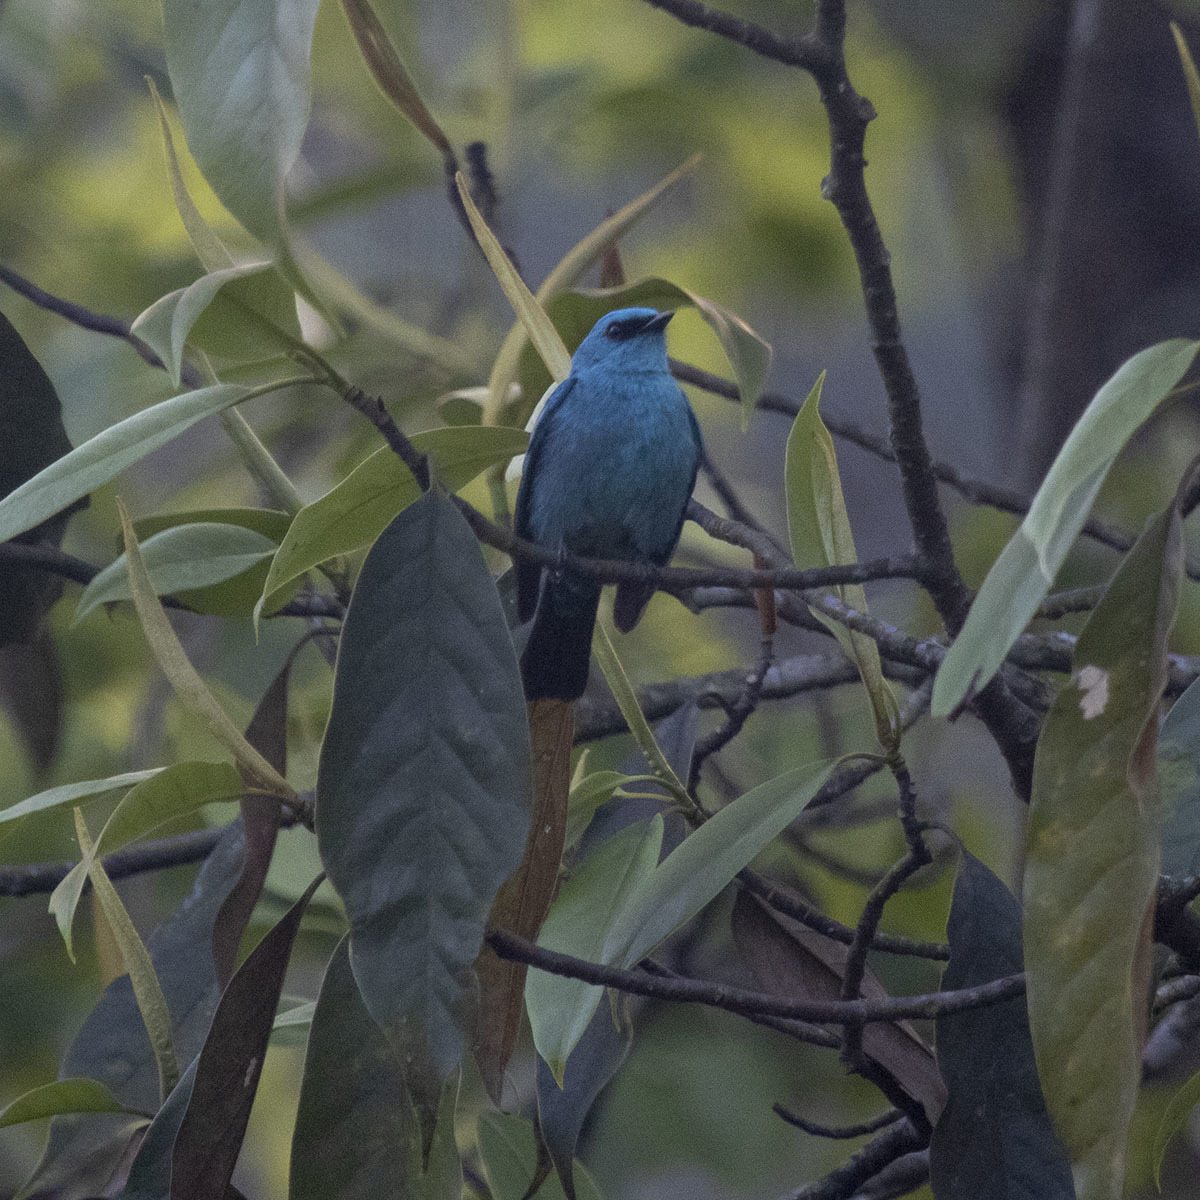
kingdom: Animalia
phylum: Chordata
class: Aves
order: Passeriformes
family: Muscicapidae
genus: Eumyias
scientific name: Eumyias thalassinus
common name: Verditer flycatcher
